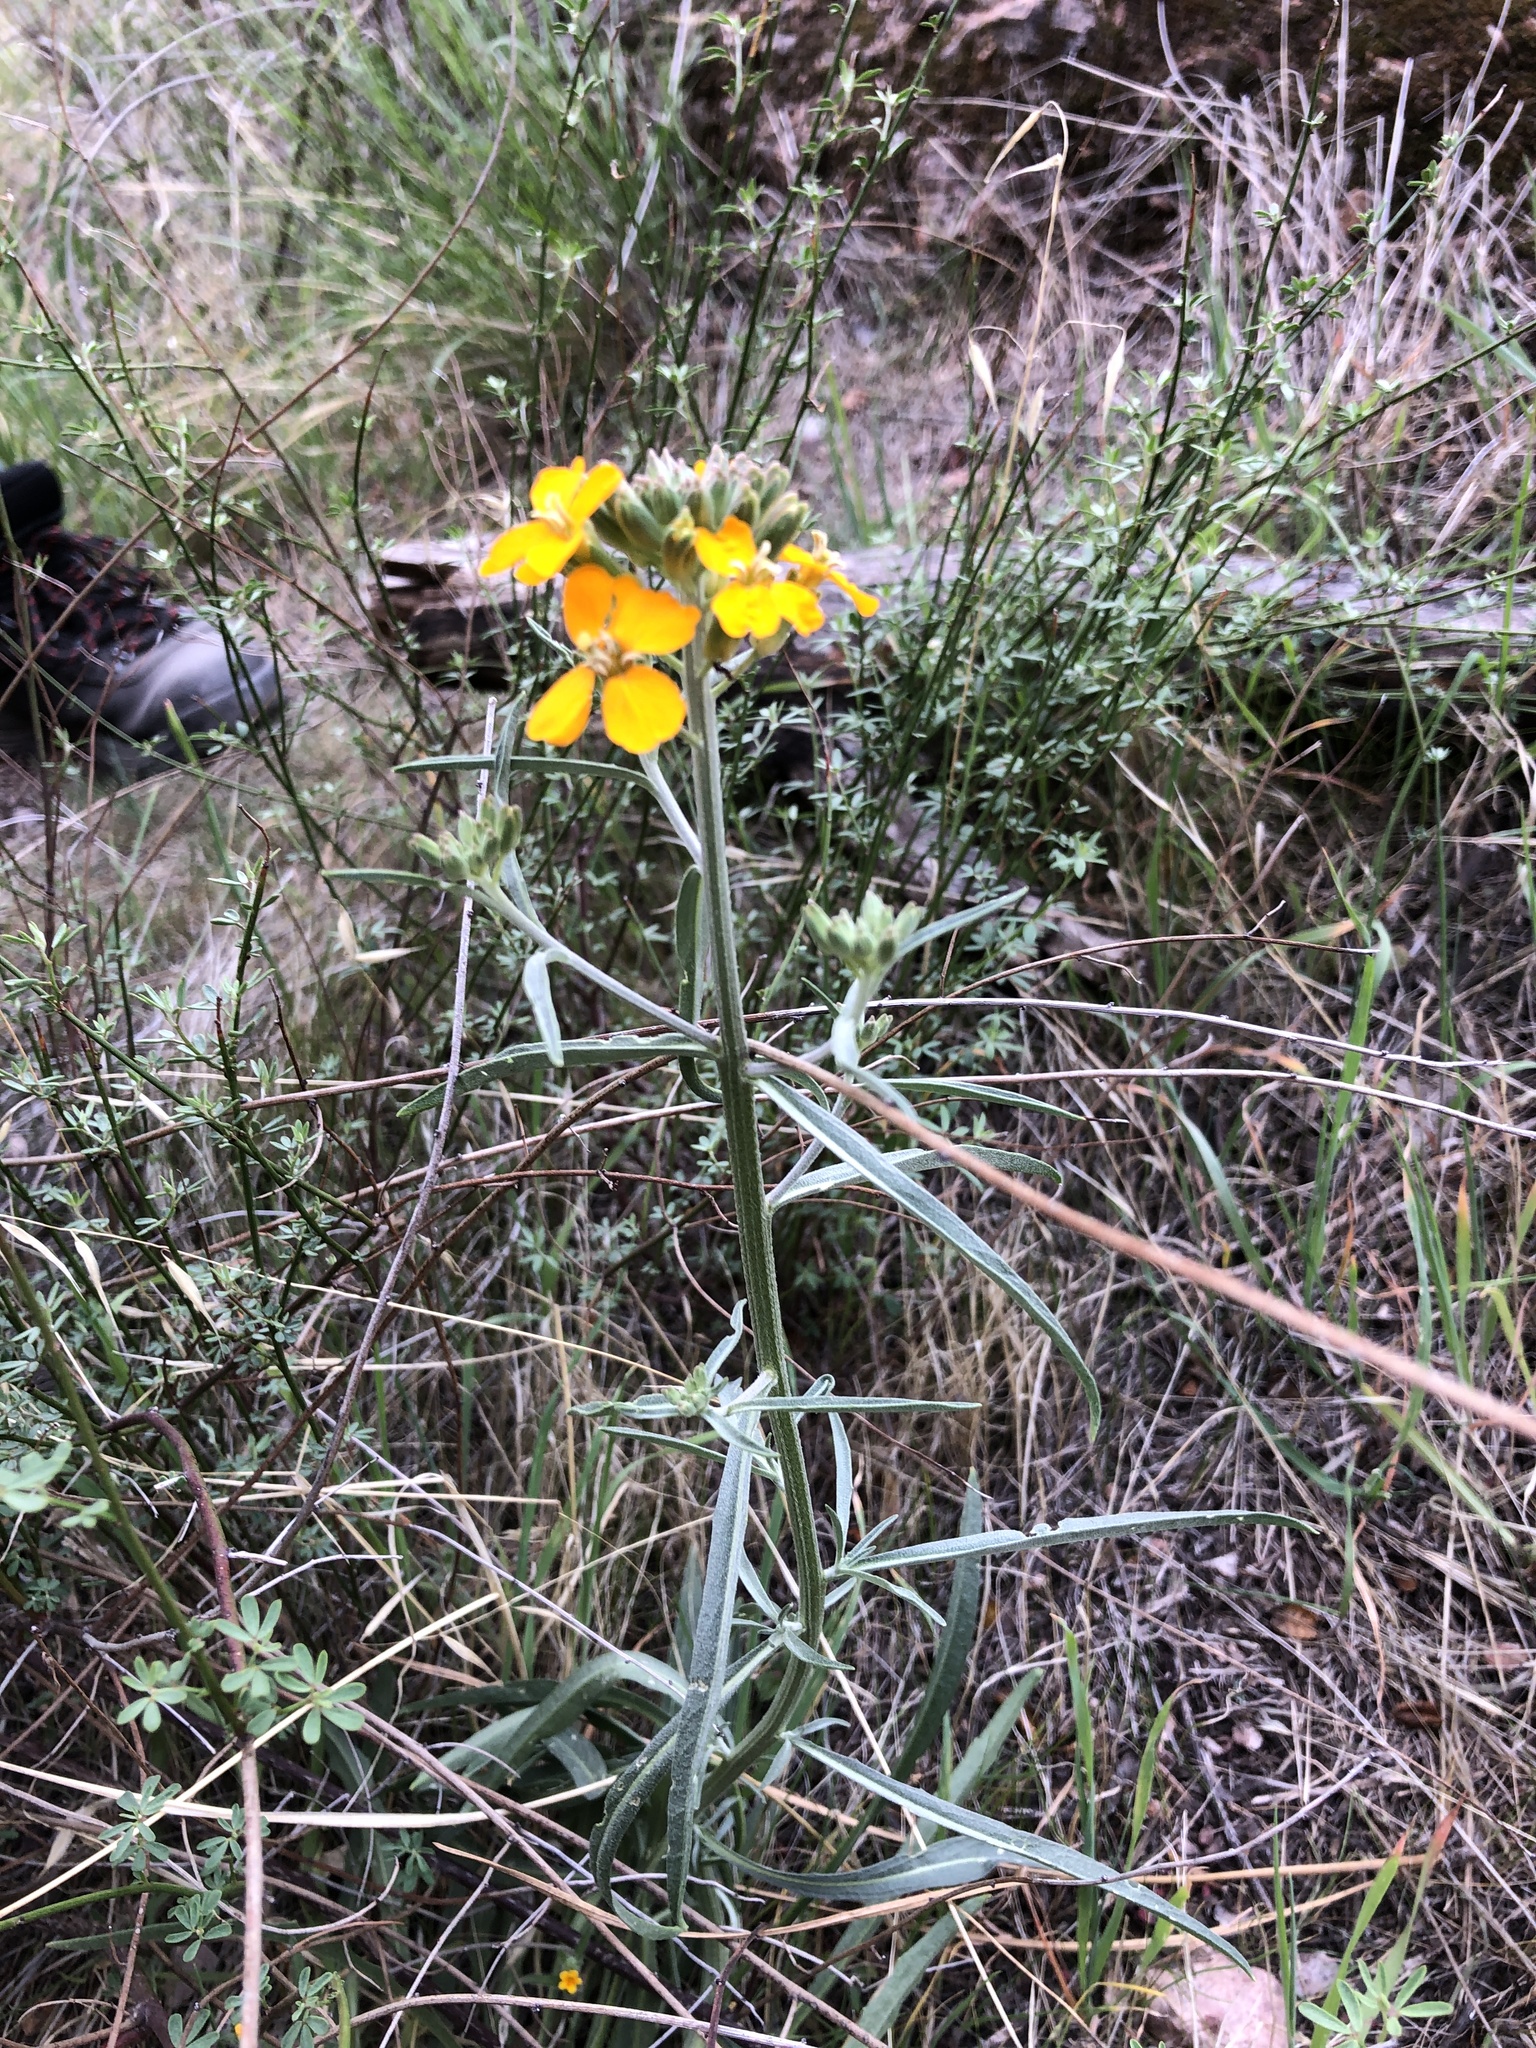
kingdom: Plantae
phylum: Tracheophyta
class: Magnoliopsida
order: Brassicales
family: Brassicaceae
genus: Erysimum
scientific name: Erysimum capitatum
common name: Western wallflower
